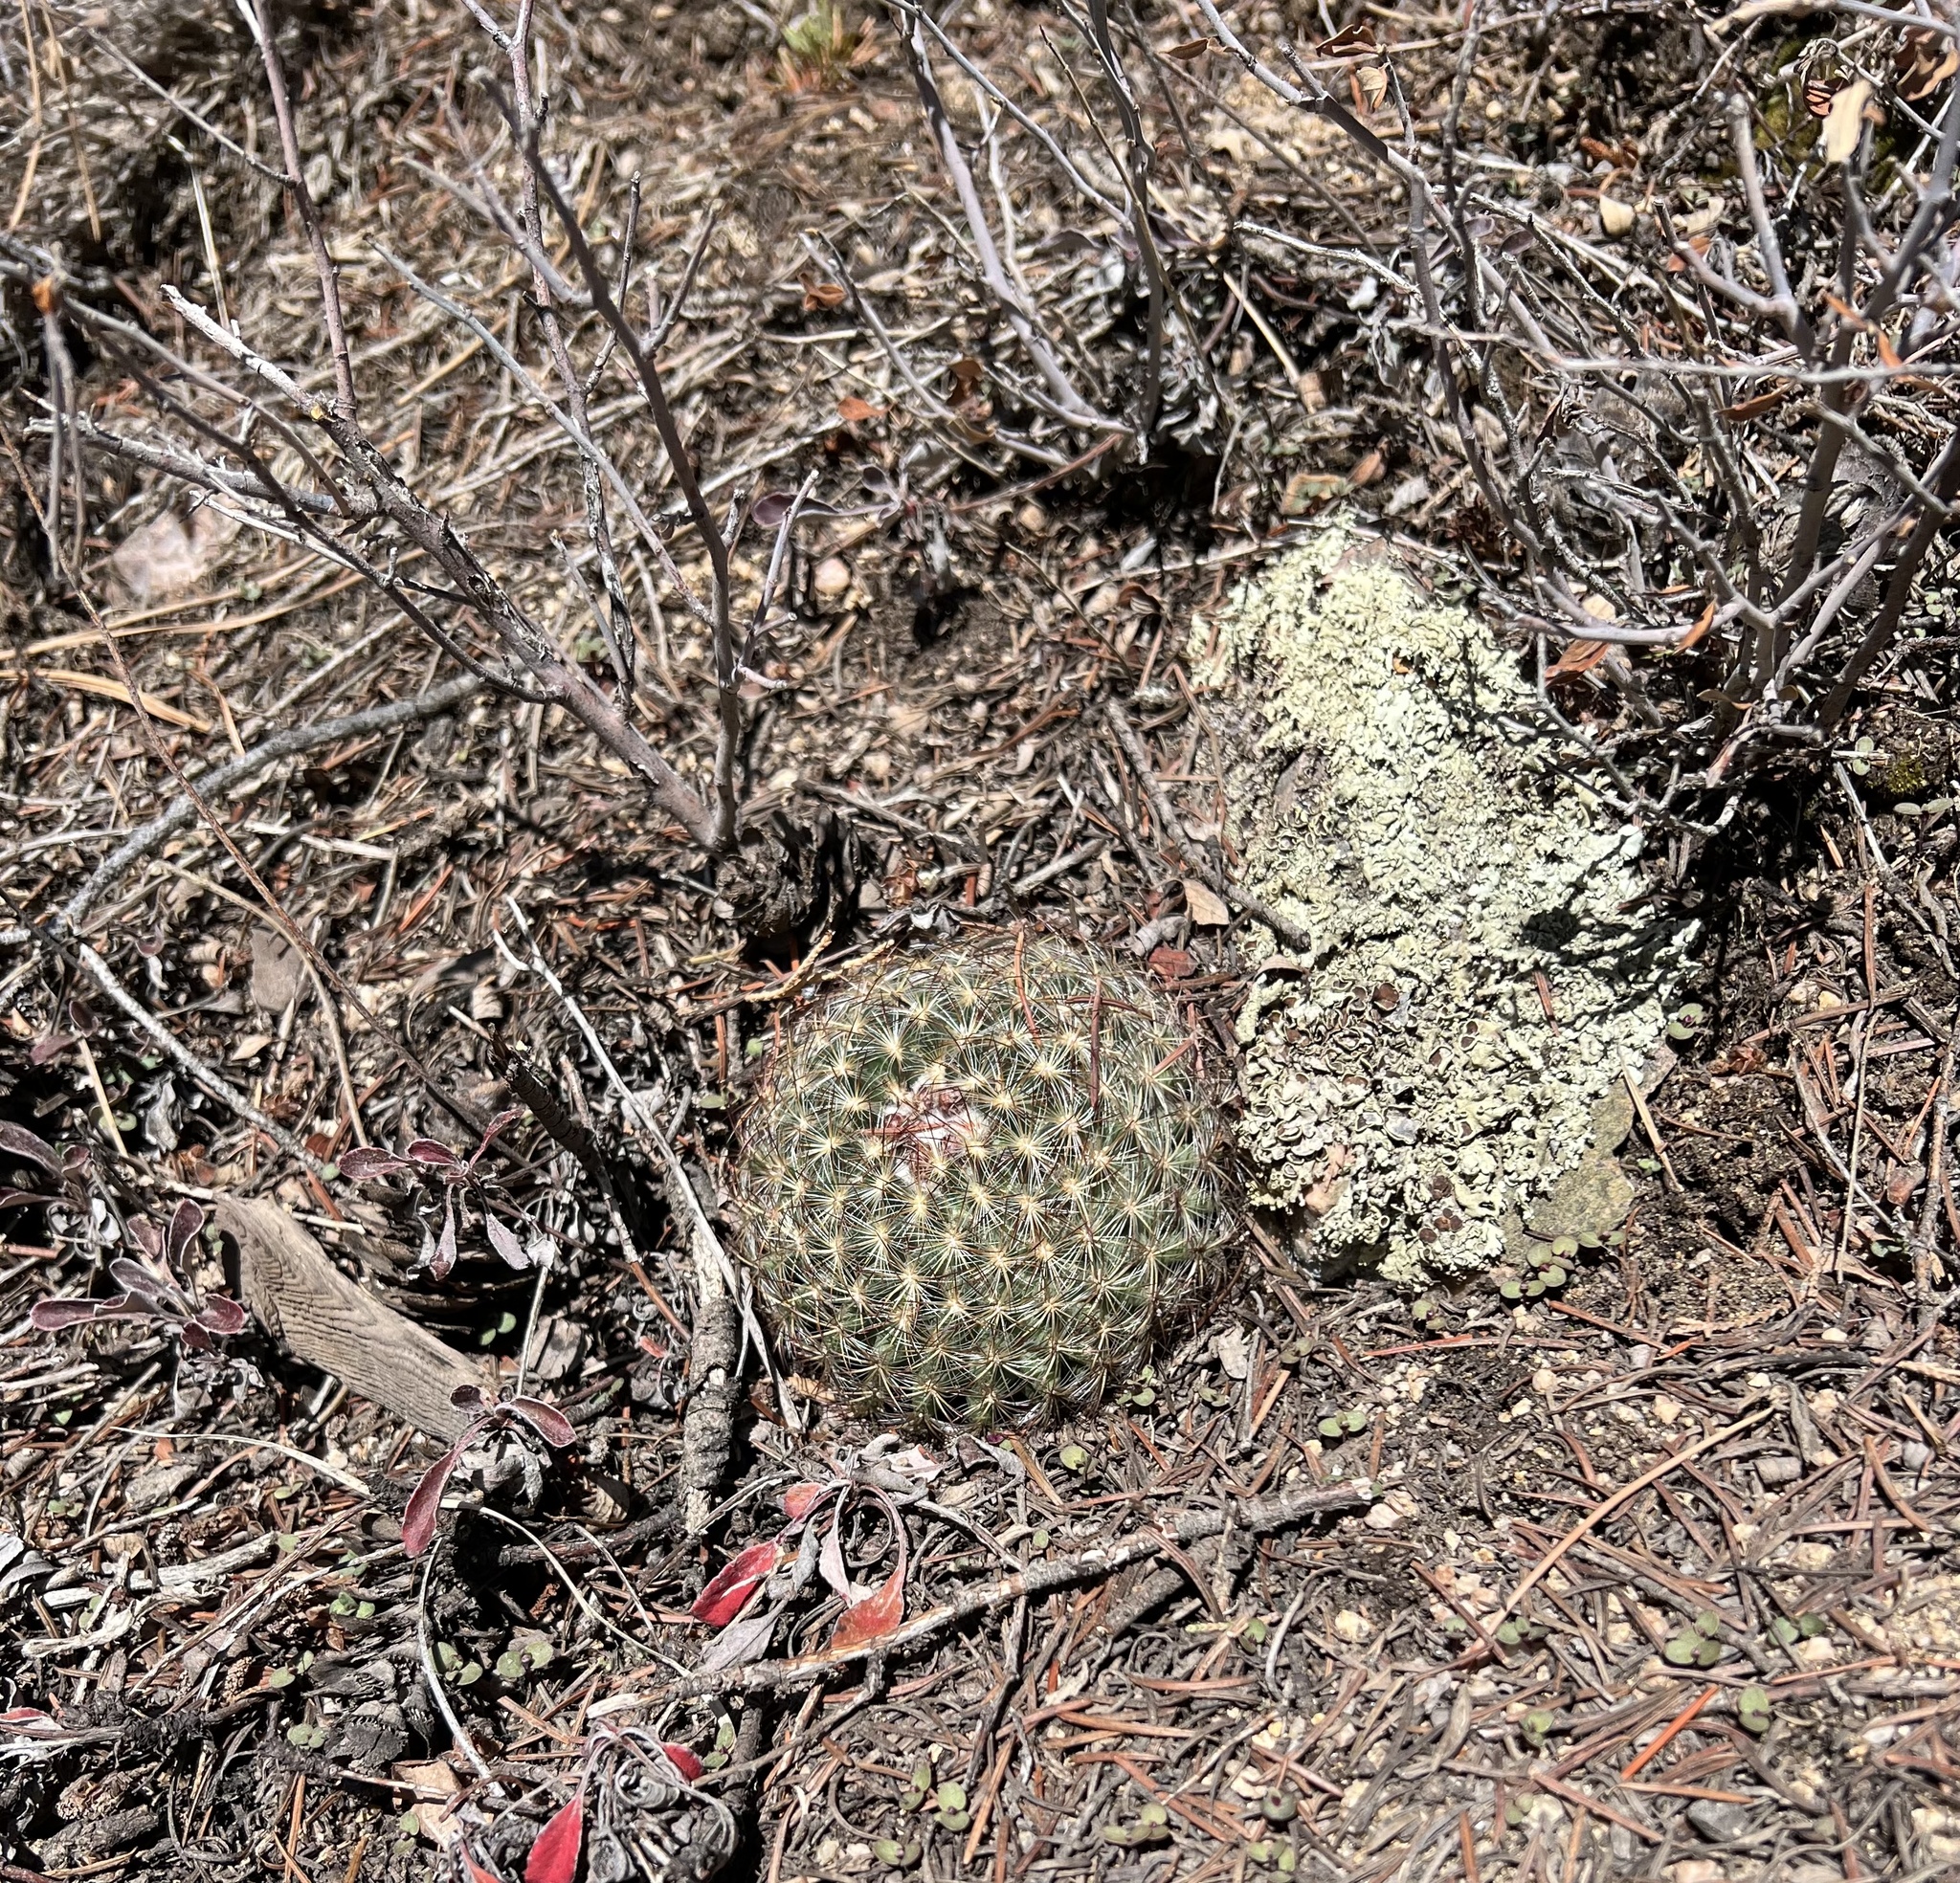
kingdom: Plantae
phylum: Tracheophyta
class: Magnoliopsida
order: Caryophyllales
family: Cactaceae
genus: Pediocactus
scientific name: Pediocactus simpsonii
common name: Simpson's hedgehog cactus
